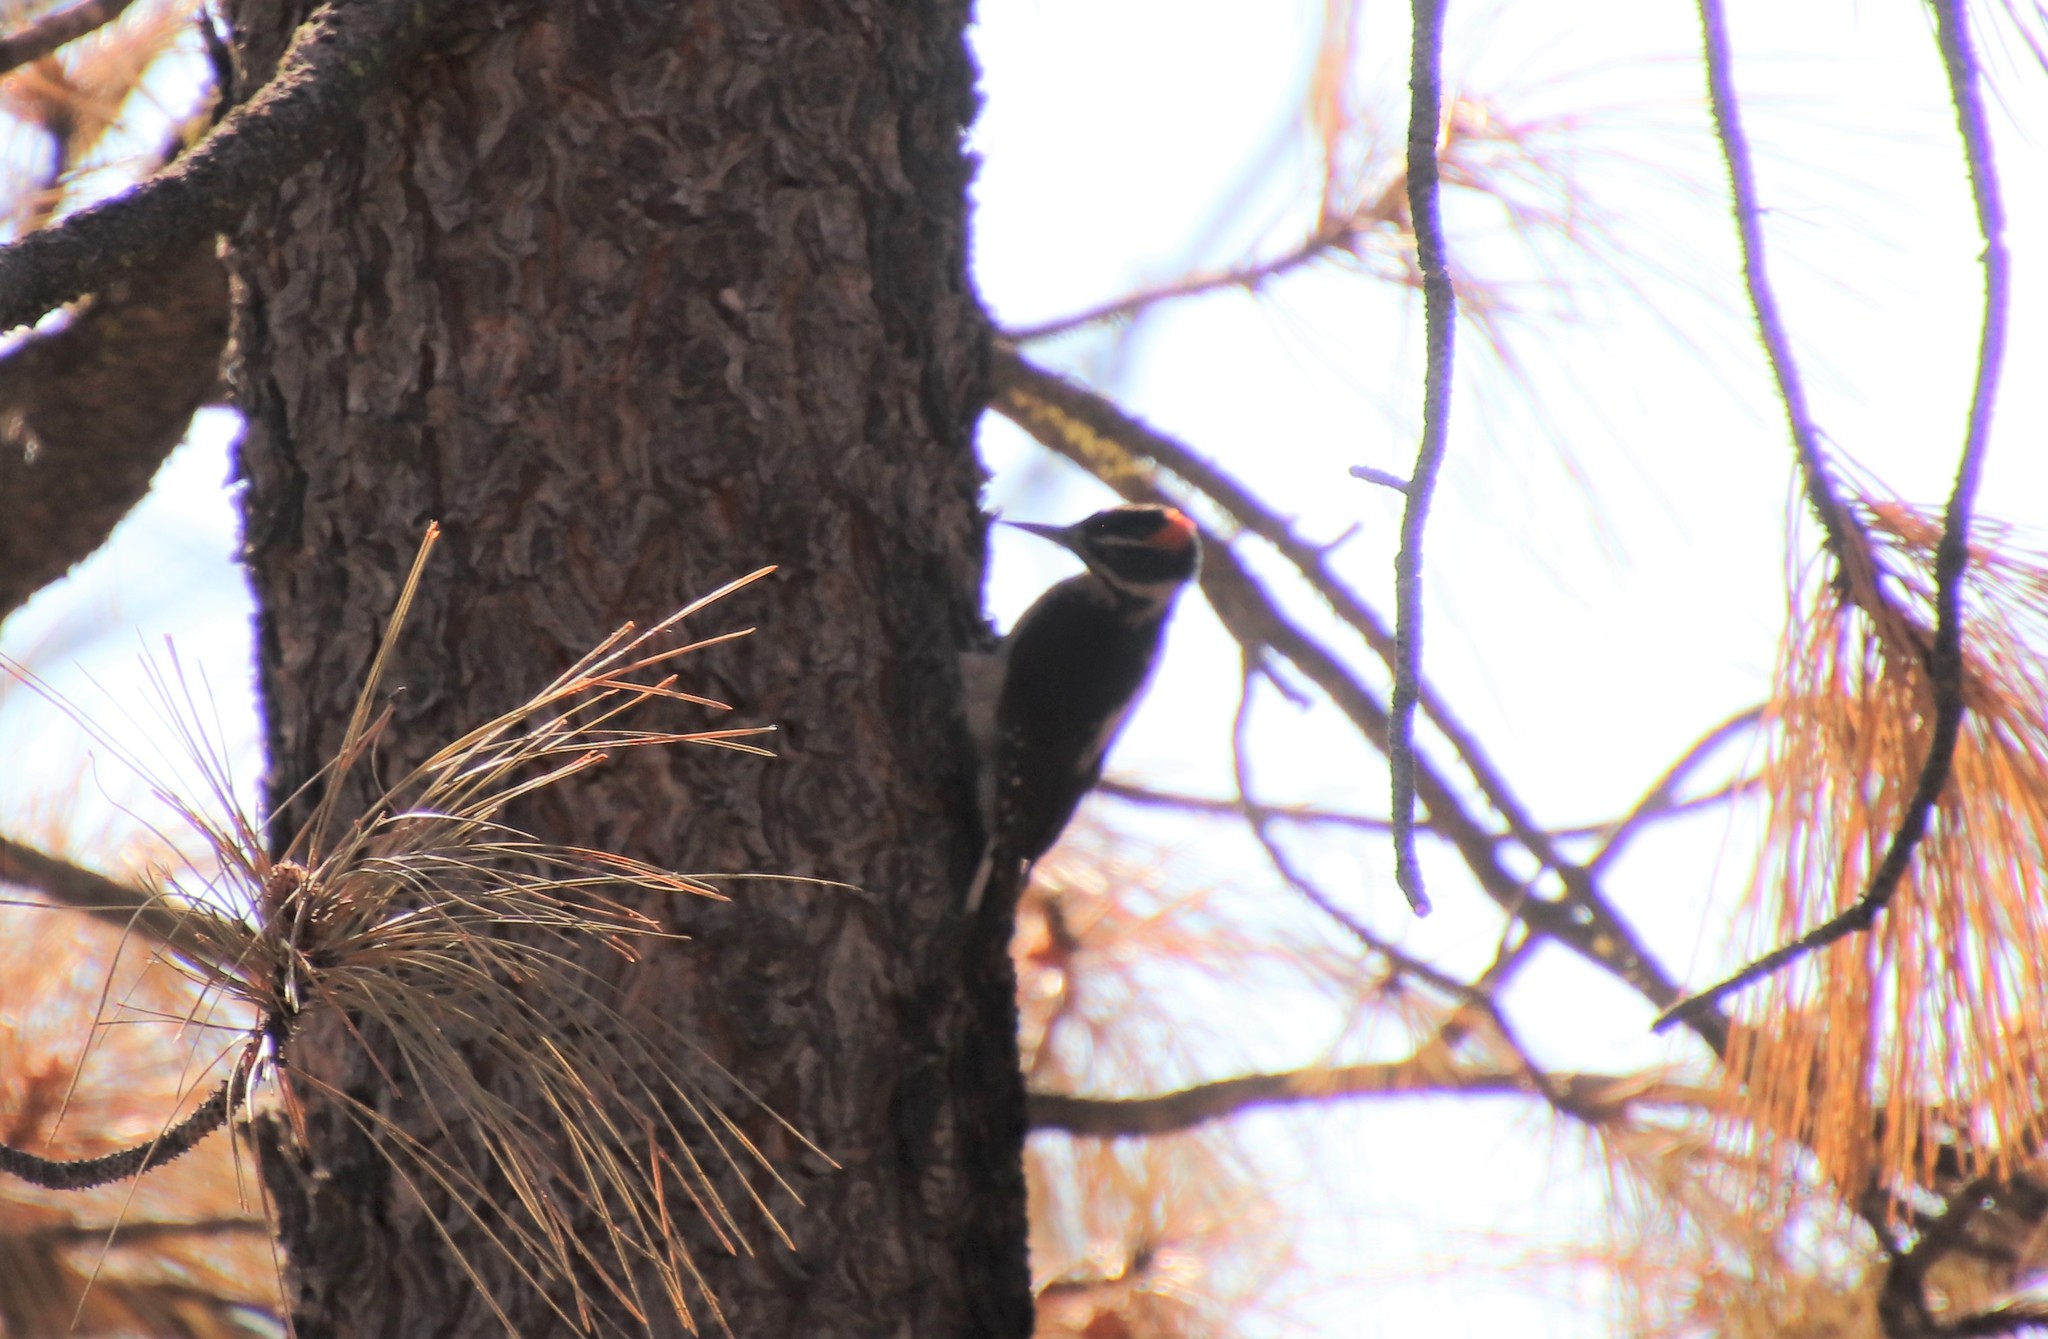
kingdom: Animalia
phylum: Chordata
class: Aves
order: Piciformes
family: Picidae
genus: Leuconotopicus
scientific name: Leuconotopicus villosus
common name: Hairy woodpecker
